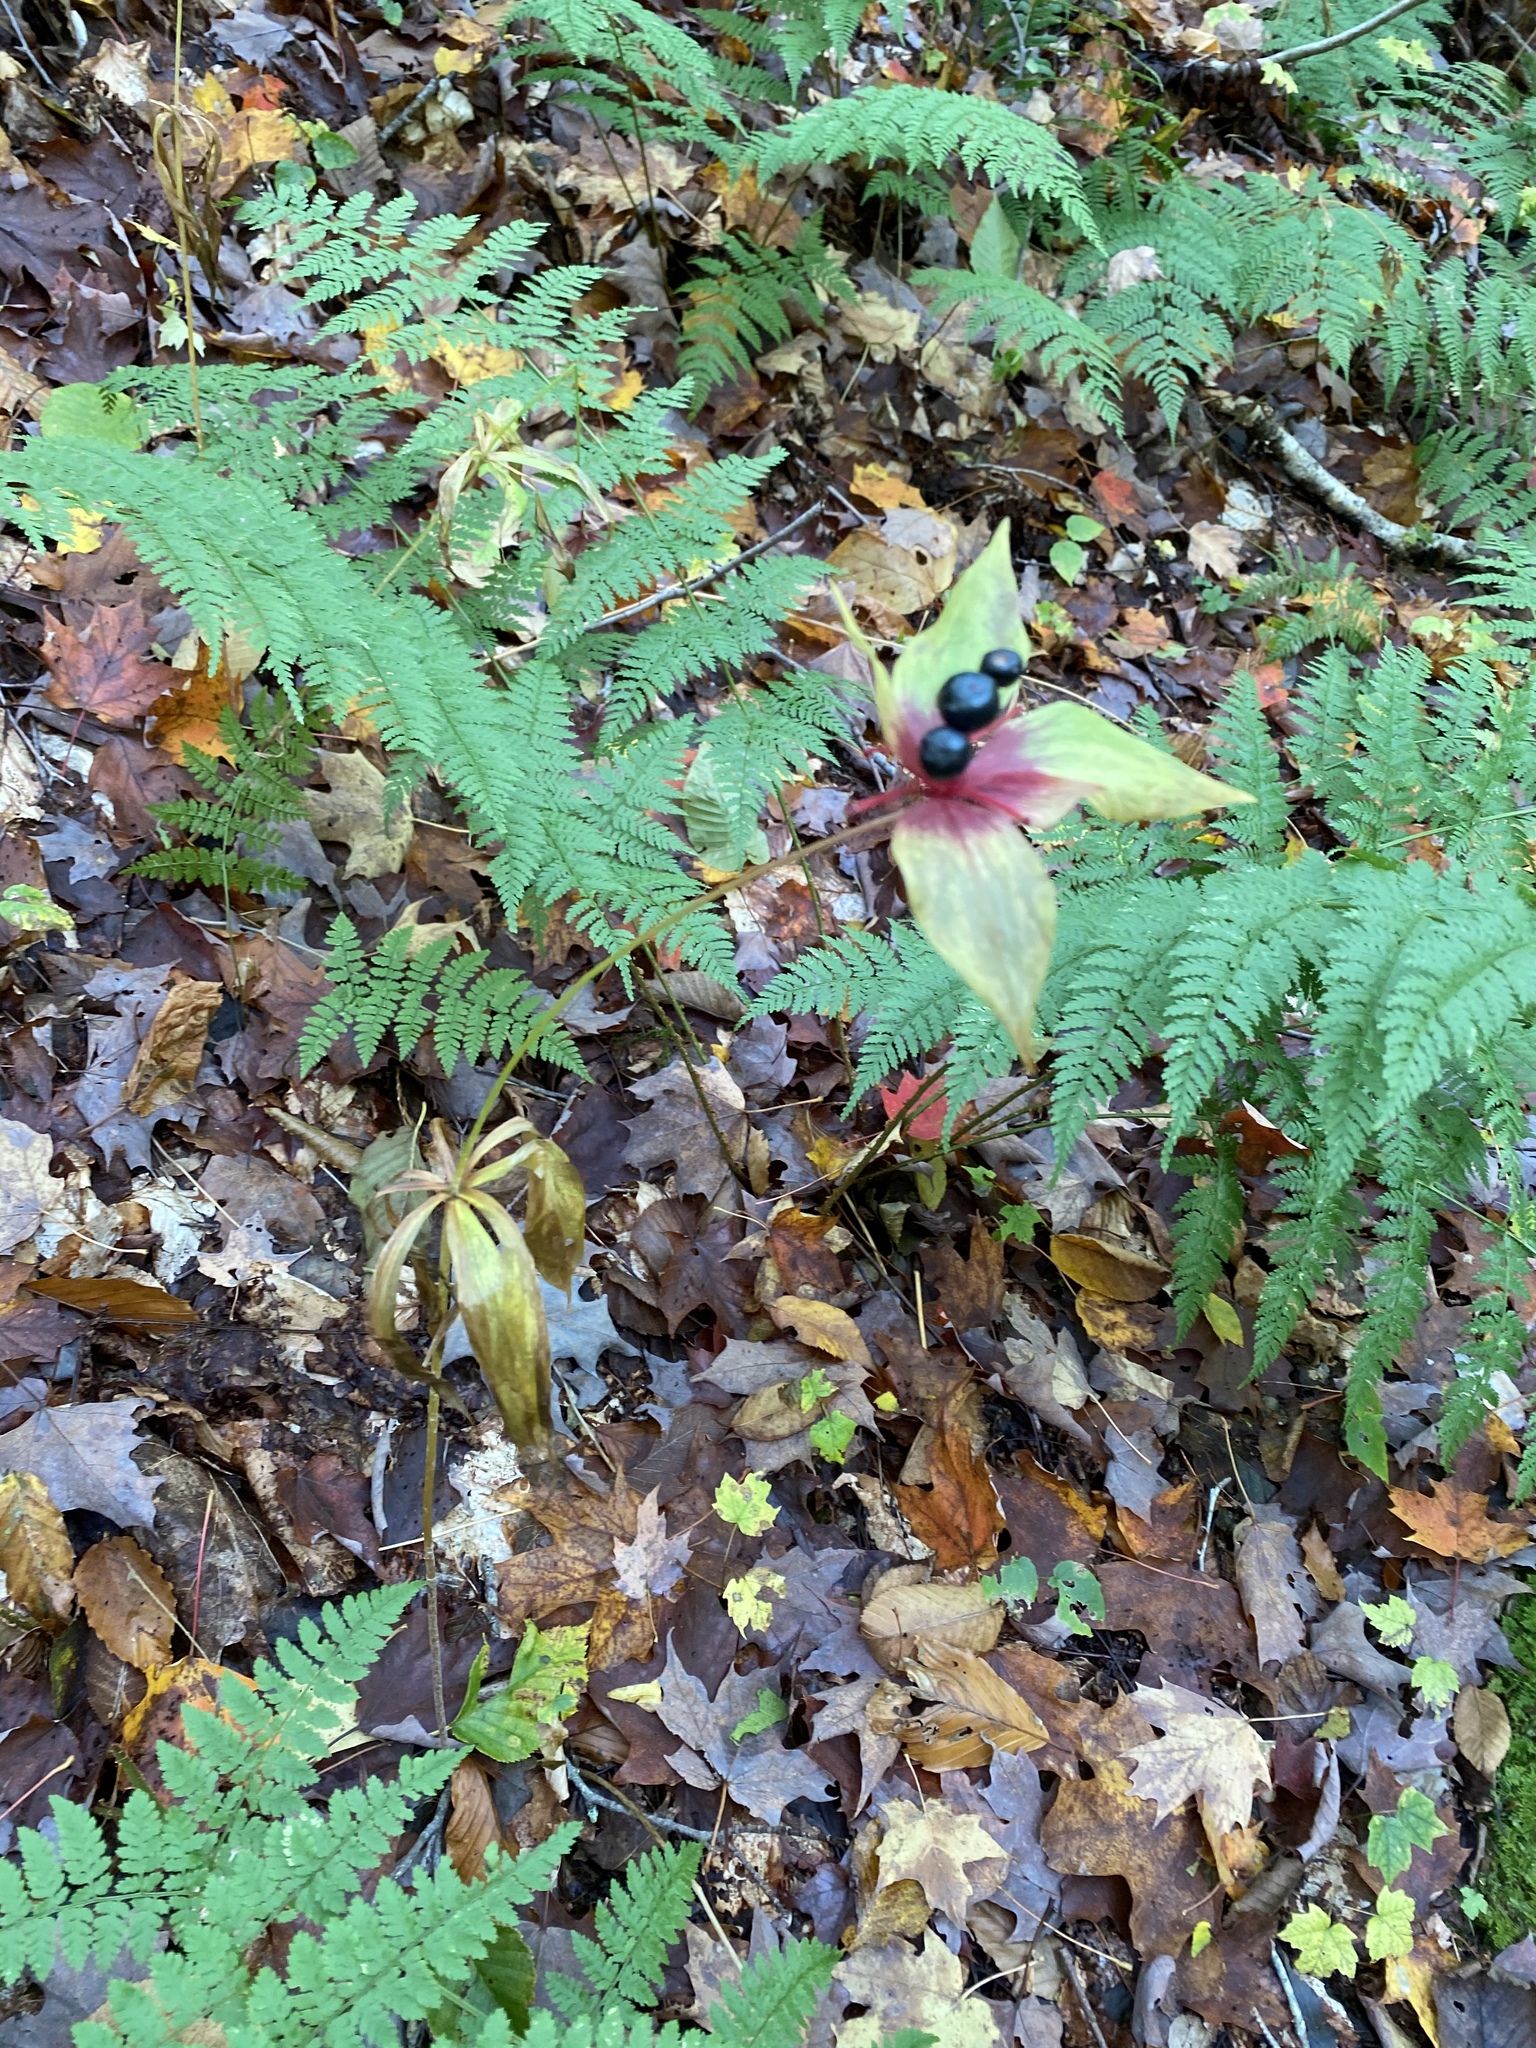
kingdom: Plantae
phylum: Tracheophyta
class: Liliopsida
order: Liliales
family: Liliaceae
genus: Medeola
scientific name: Medeola virginiana
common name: Indian cucumber-root
